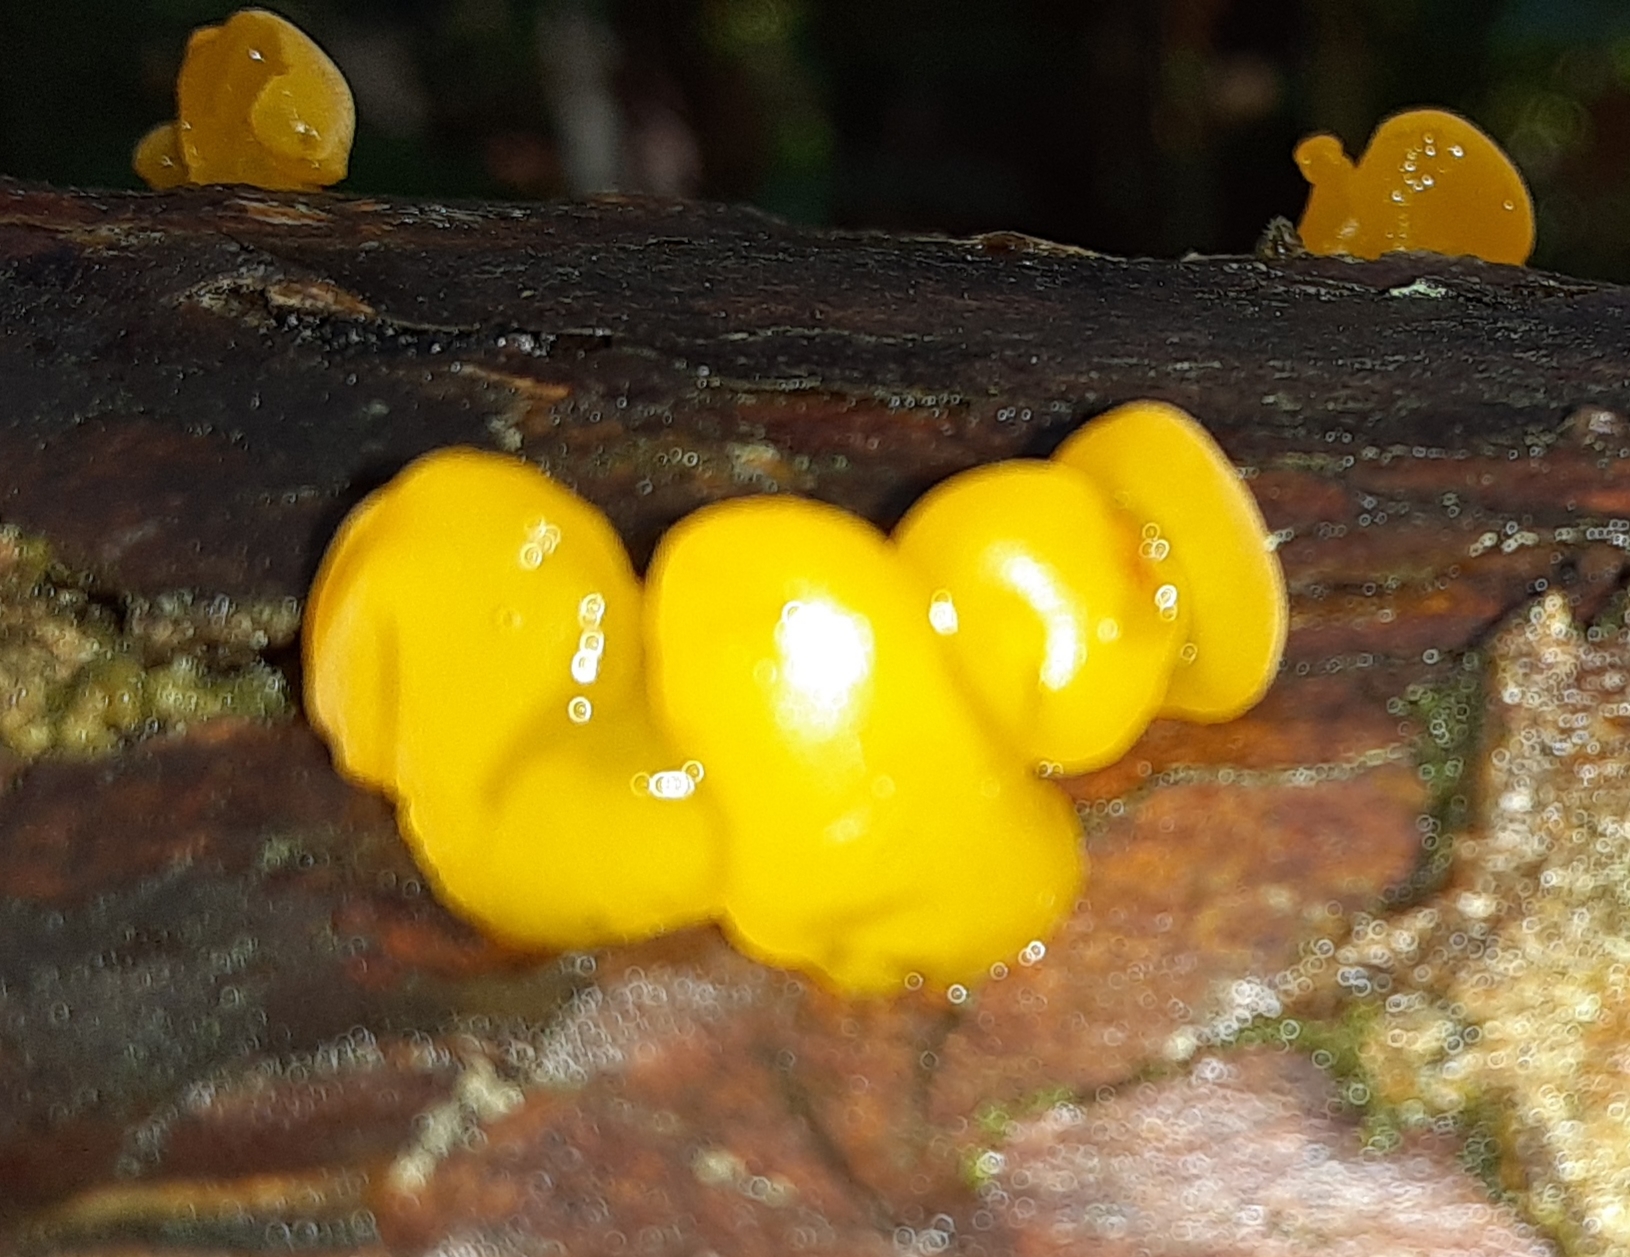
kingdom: Fungi
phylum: Basidiomycota
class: Dacrymycetes
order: Dacrymycetales
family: Dacrymycetaceae
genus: Dacrymyces
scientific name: Dacrymyces chrysospermus
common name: Orange jelly spot
